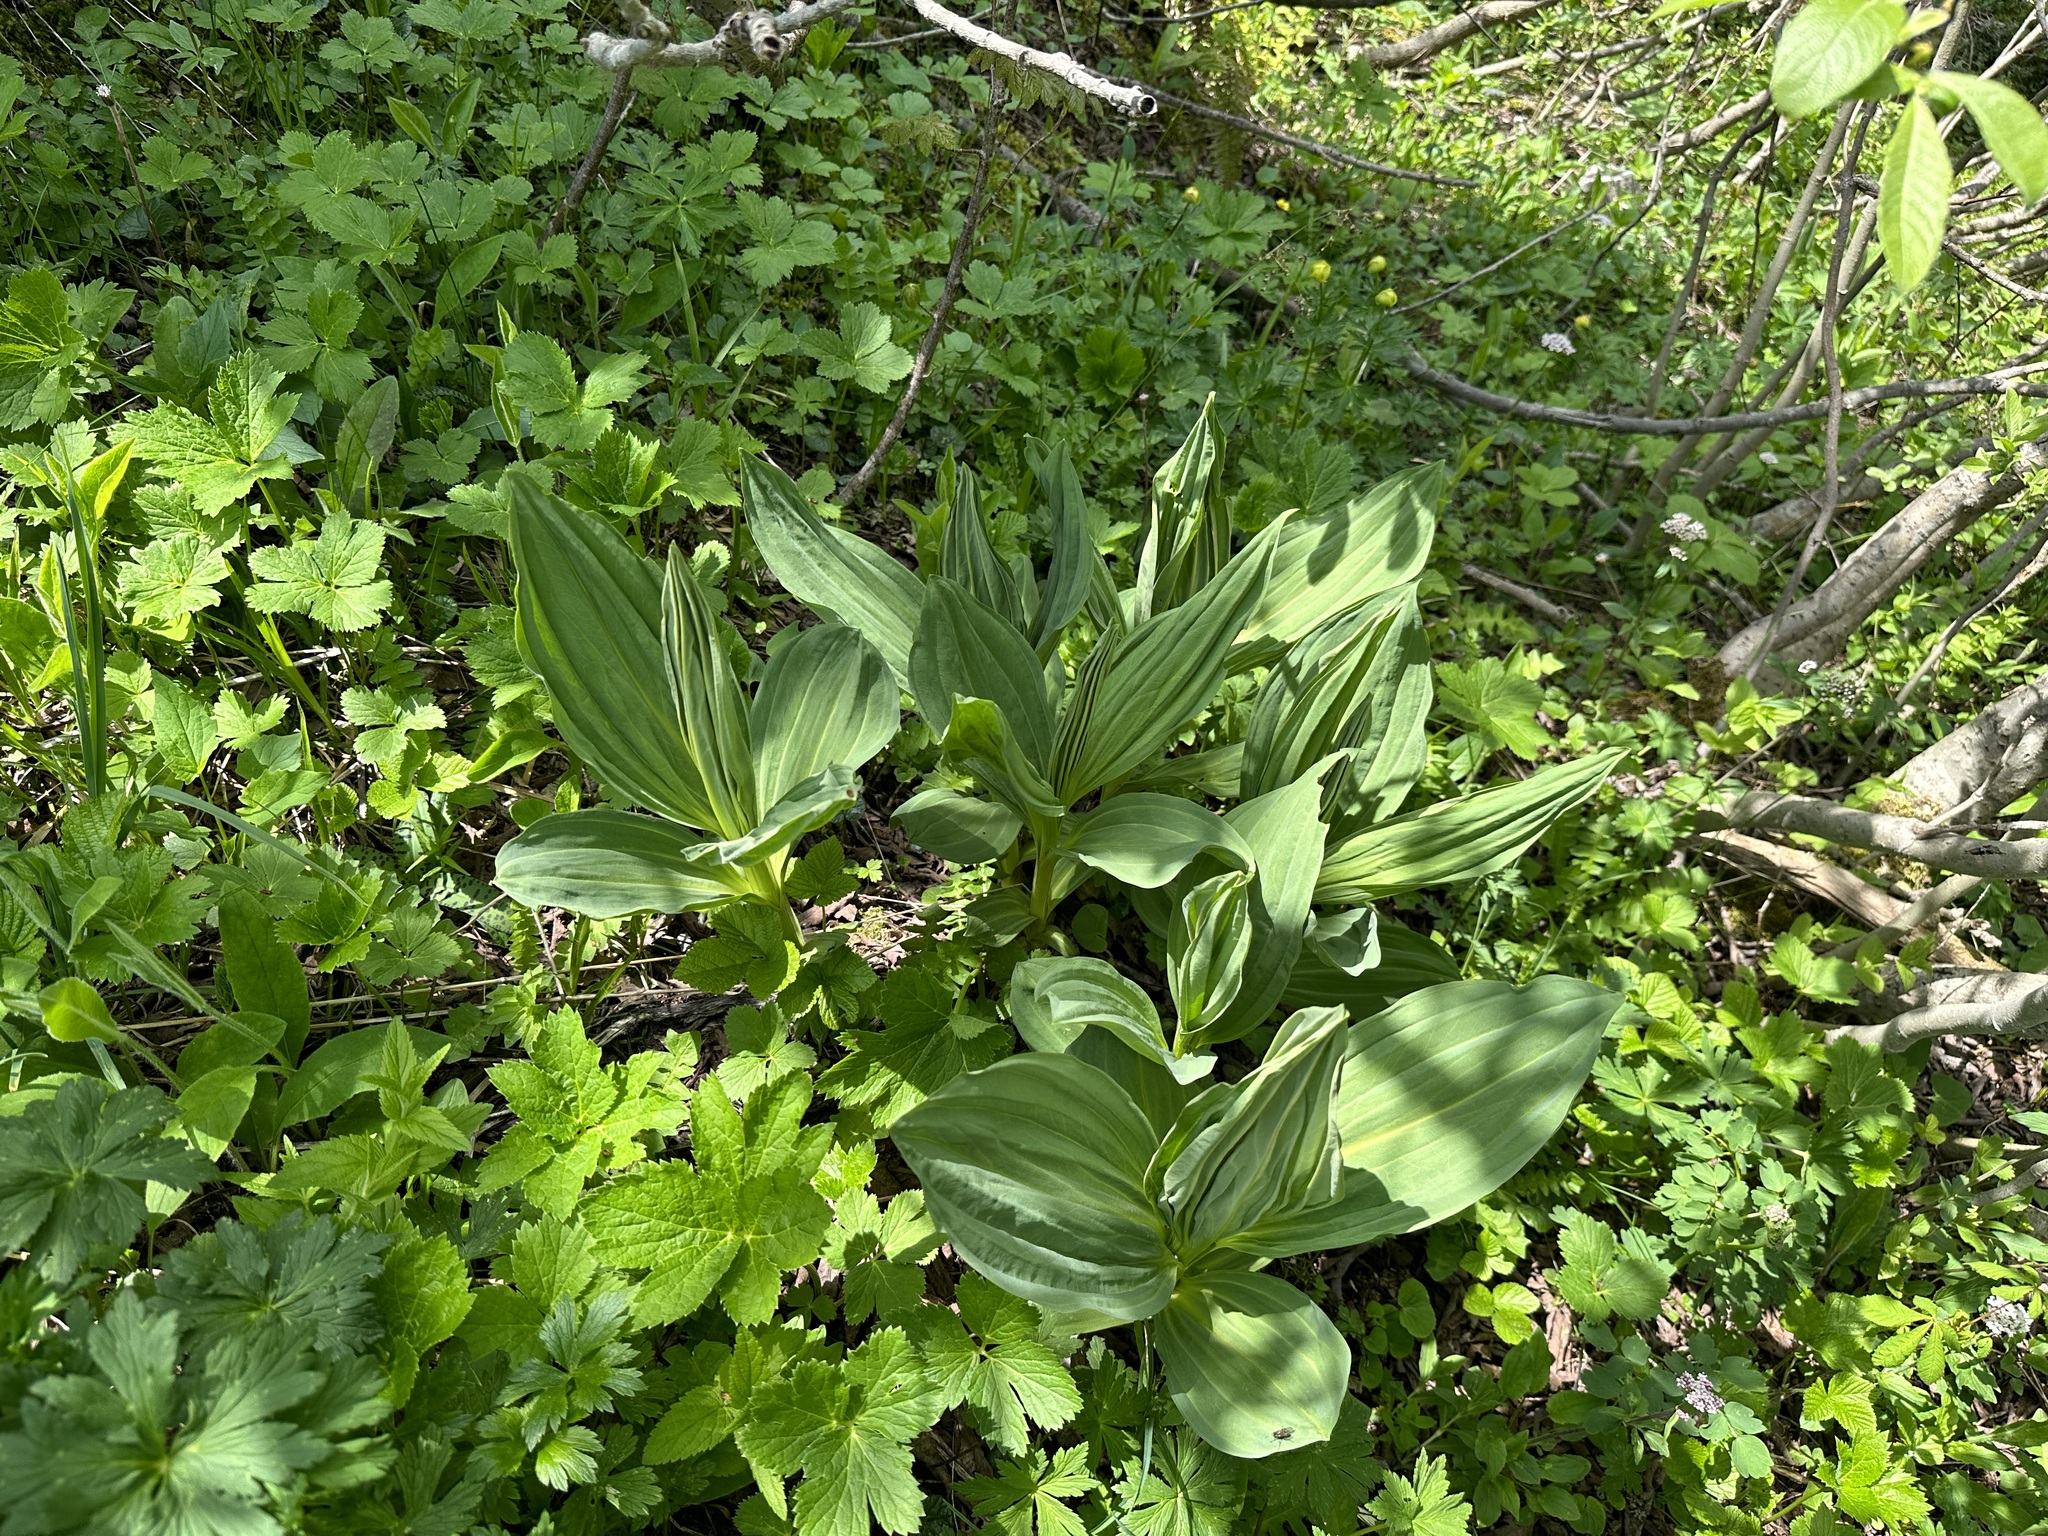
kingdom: Plantae
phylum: Tracheophyta
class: Magnoliopsida
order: Gentianales
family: Gentianaceae
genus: Gentiana
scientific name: Gentiana lutea
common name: Great yellow gentian
